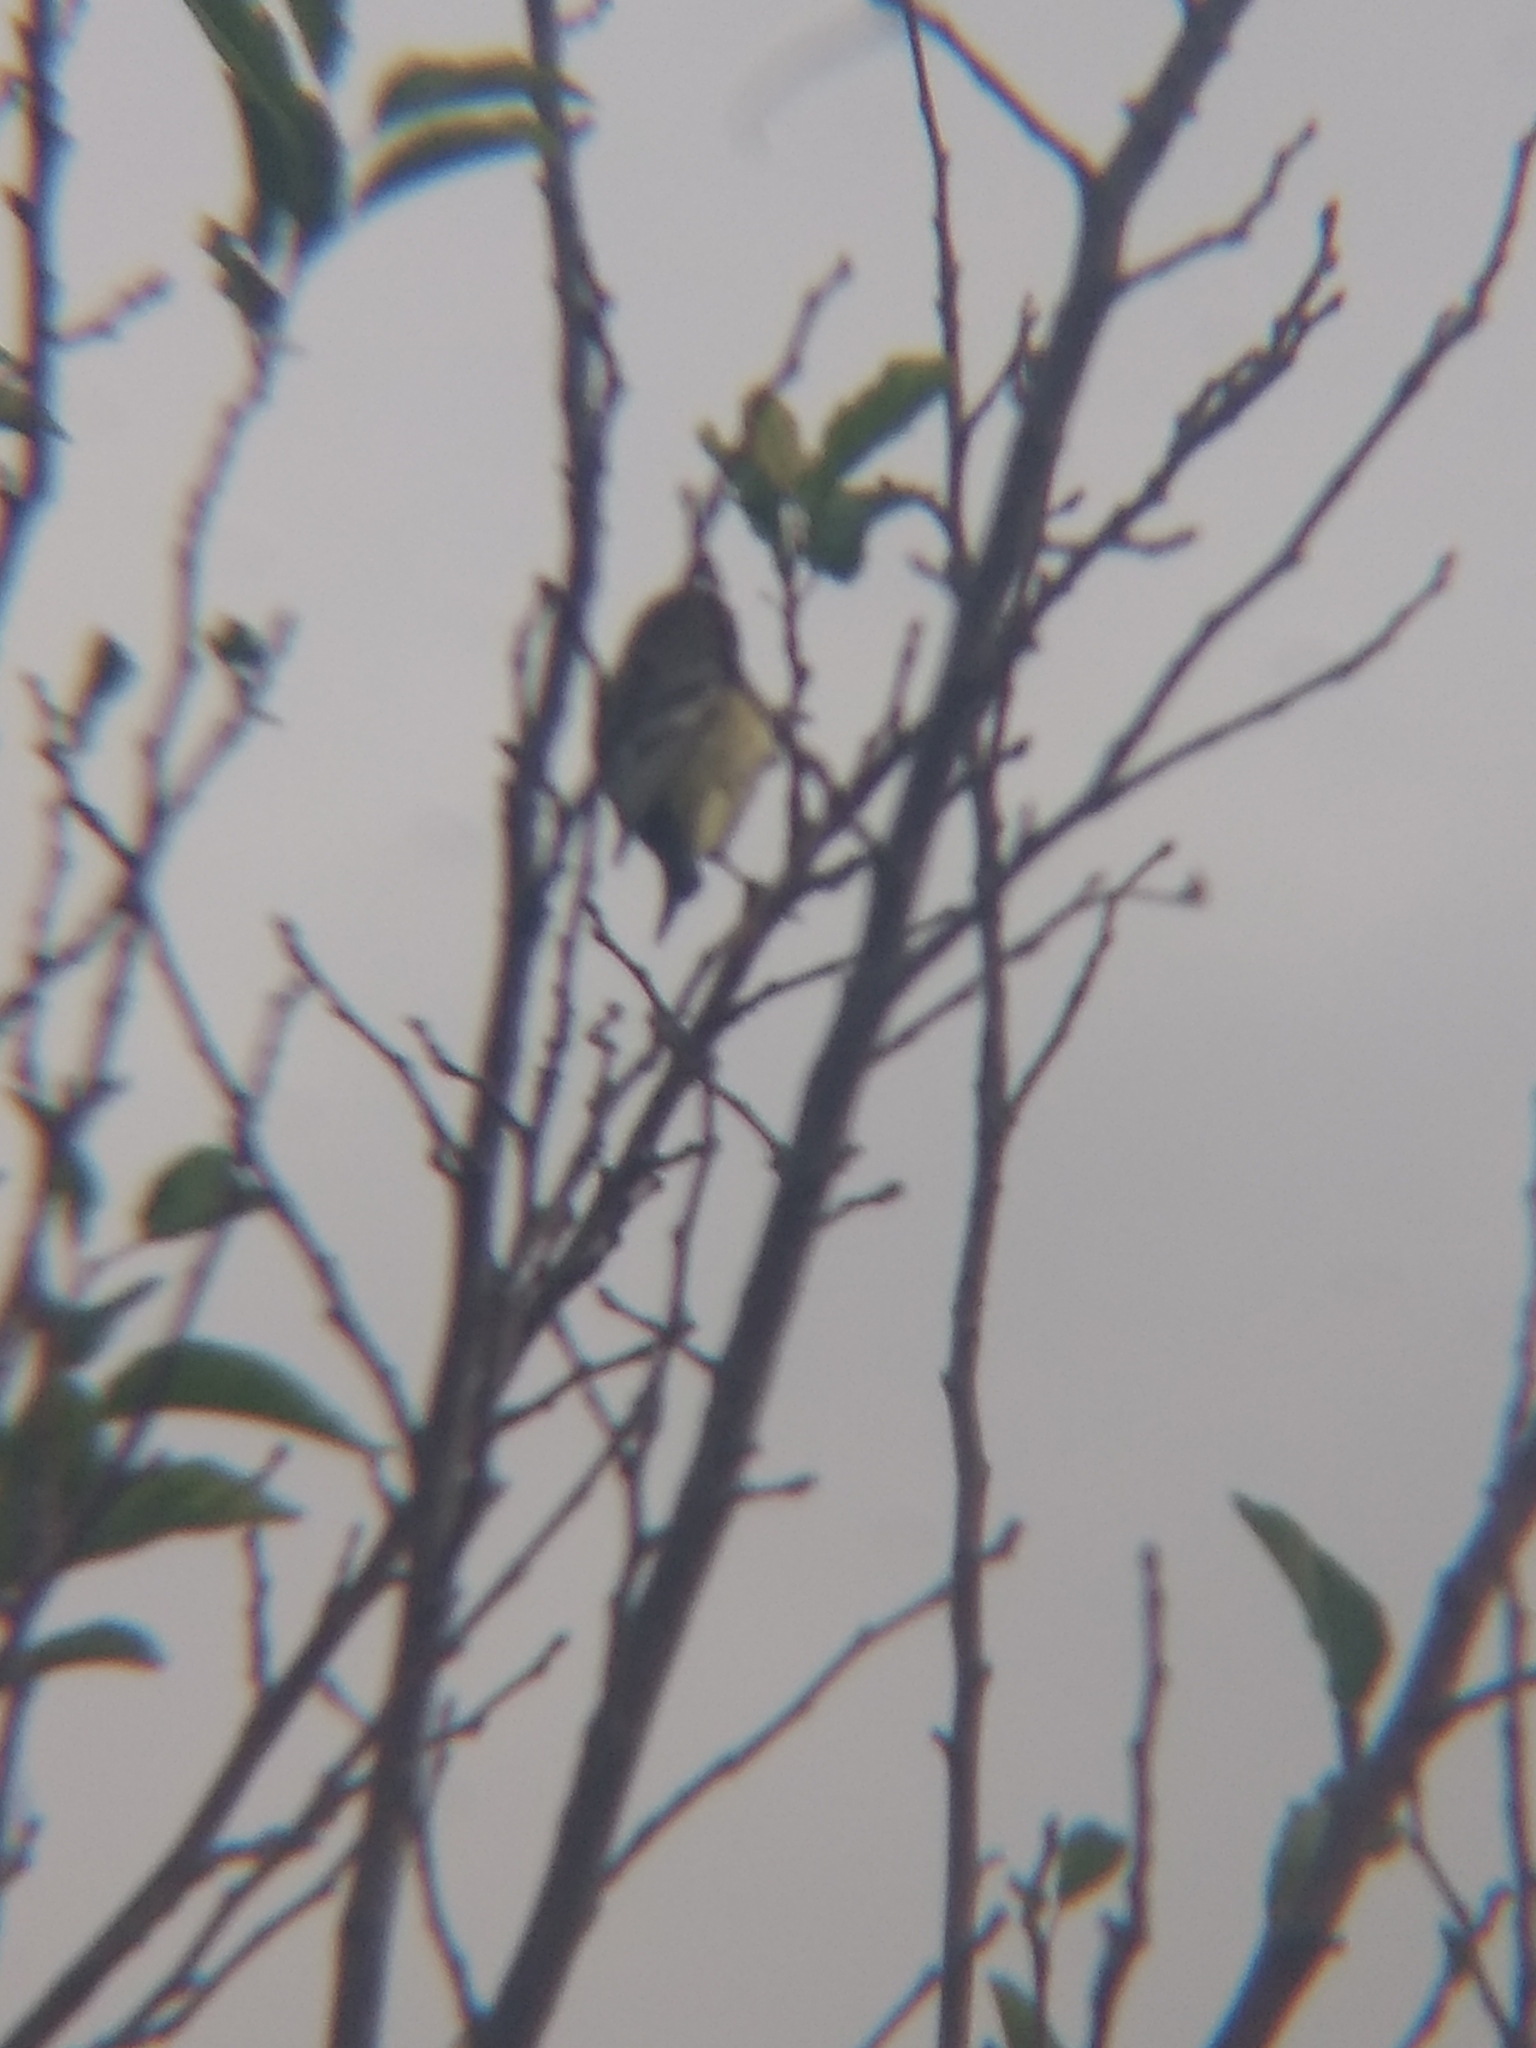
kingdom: Animalia
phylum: Chordata
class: Aves
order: Passeriformes
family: Fringillidae
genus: Spinus
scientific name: Spinus psaltria
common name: Lesser goldfinch
